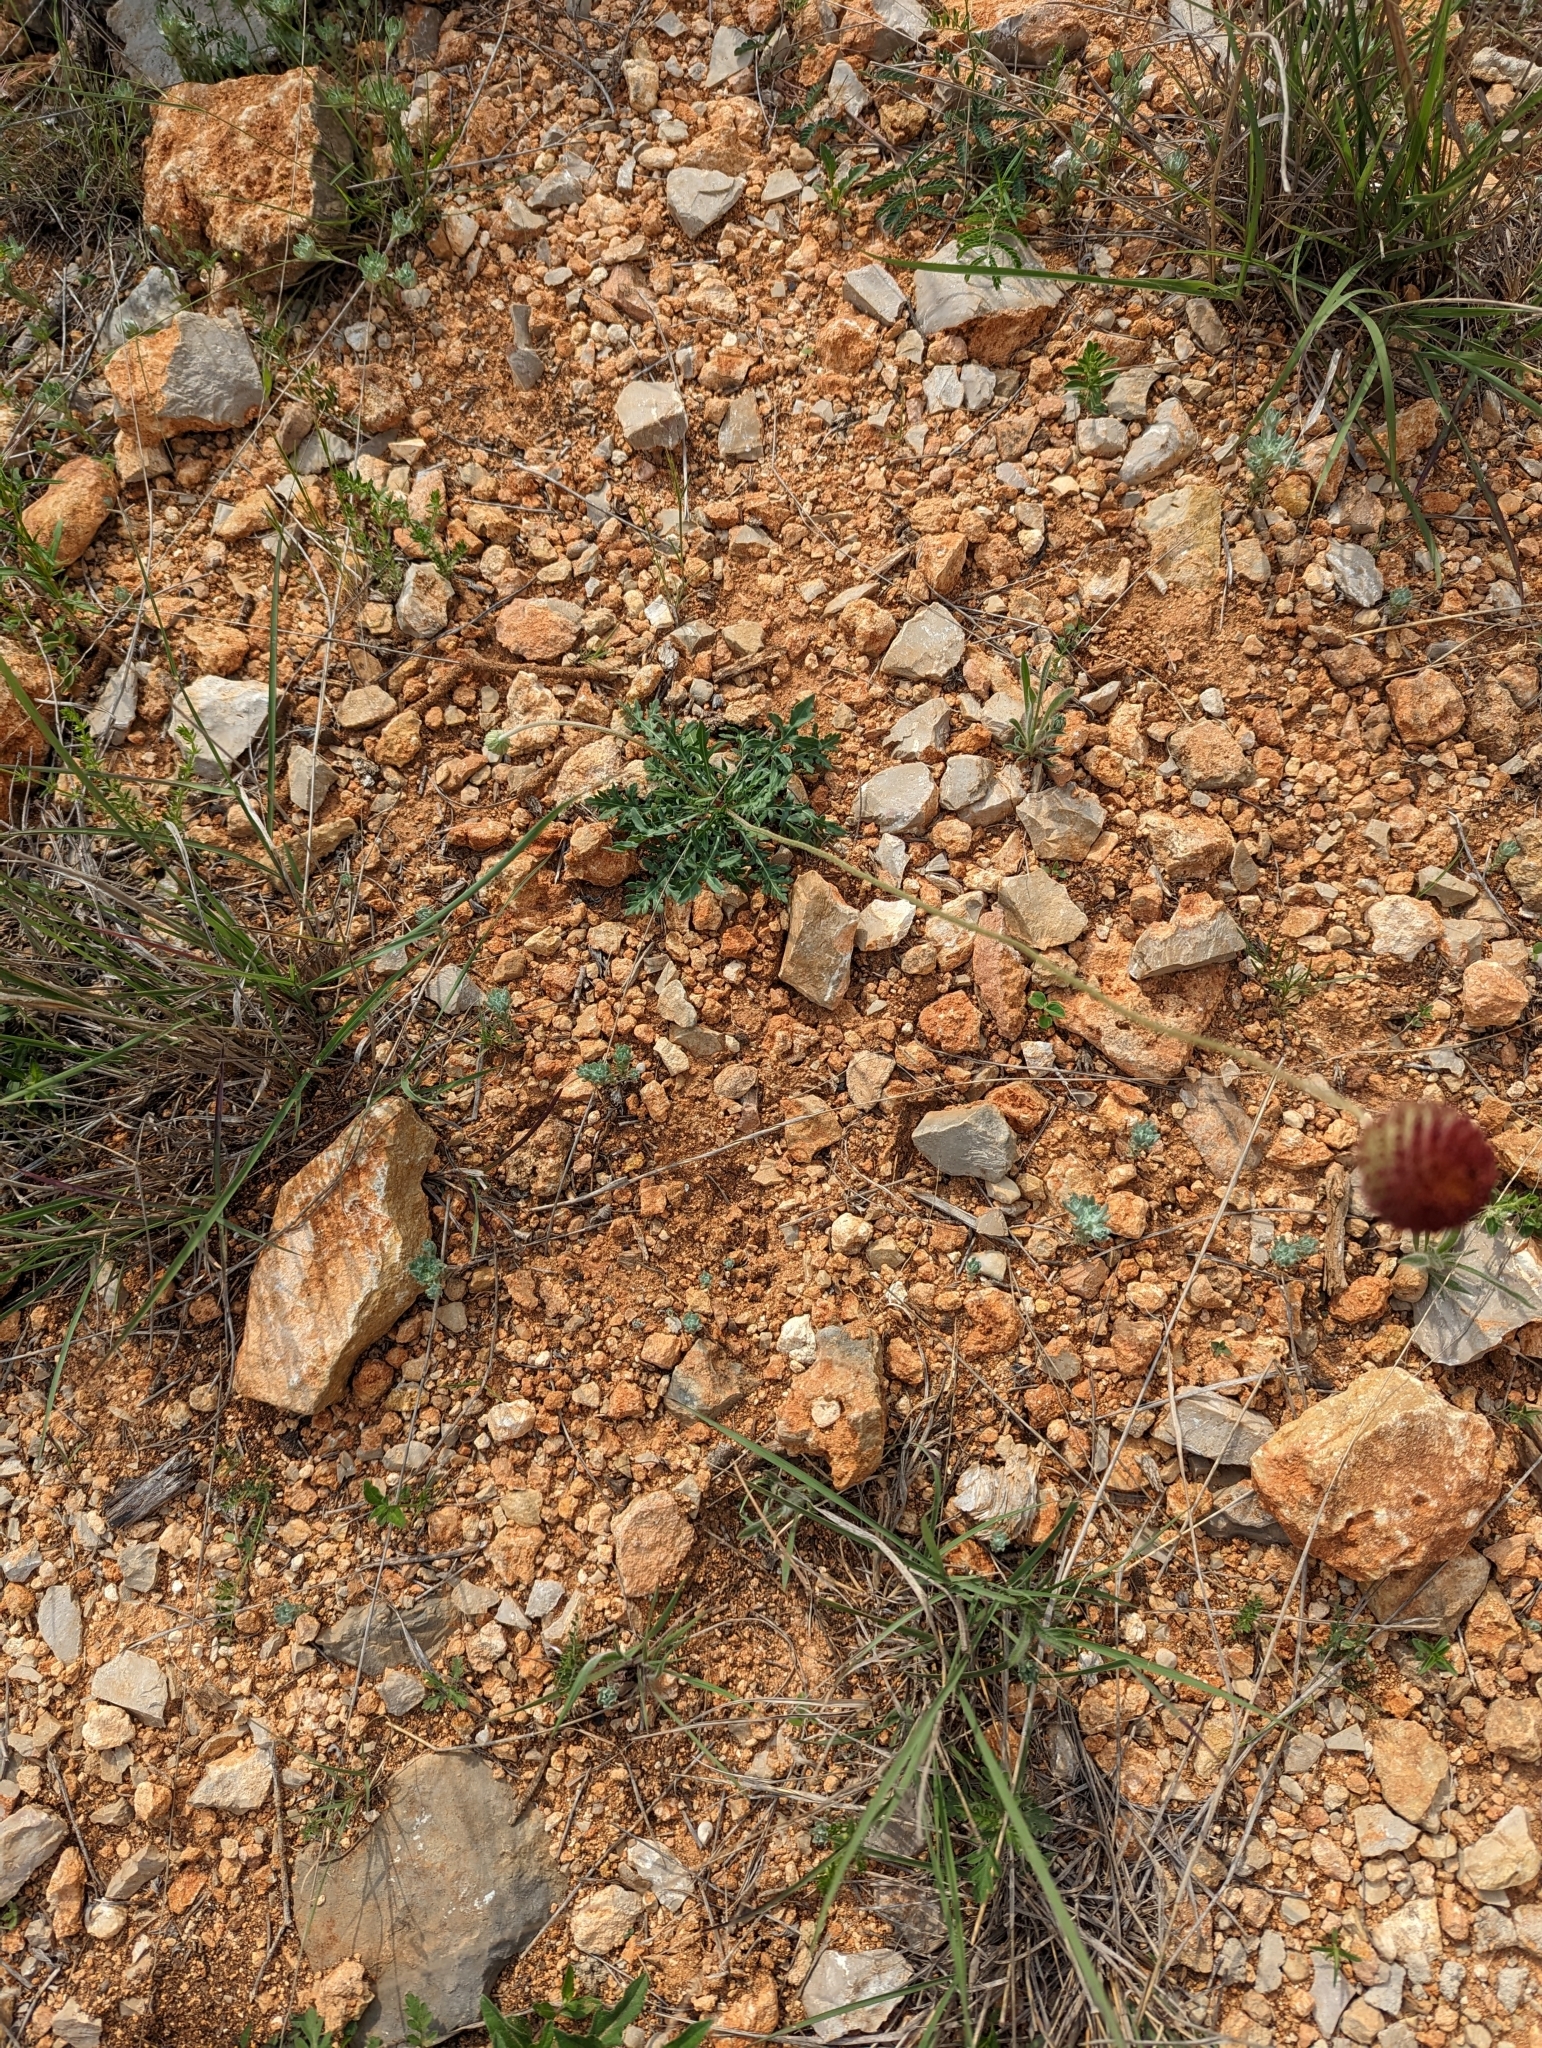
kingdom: Plantae
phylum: Tracheophyta
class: Magnoliopsida
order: Asterales
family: Asteraceae
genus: Gaillardia
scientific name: Gaillardia suavis
